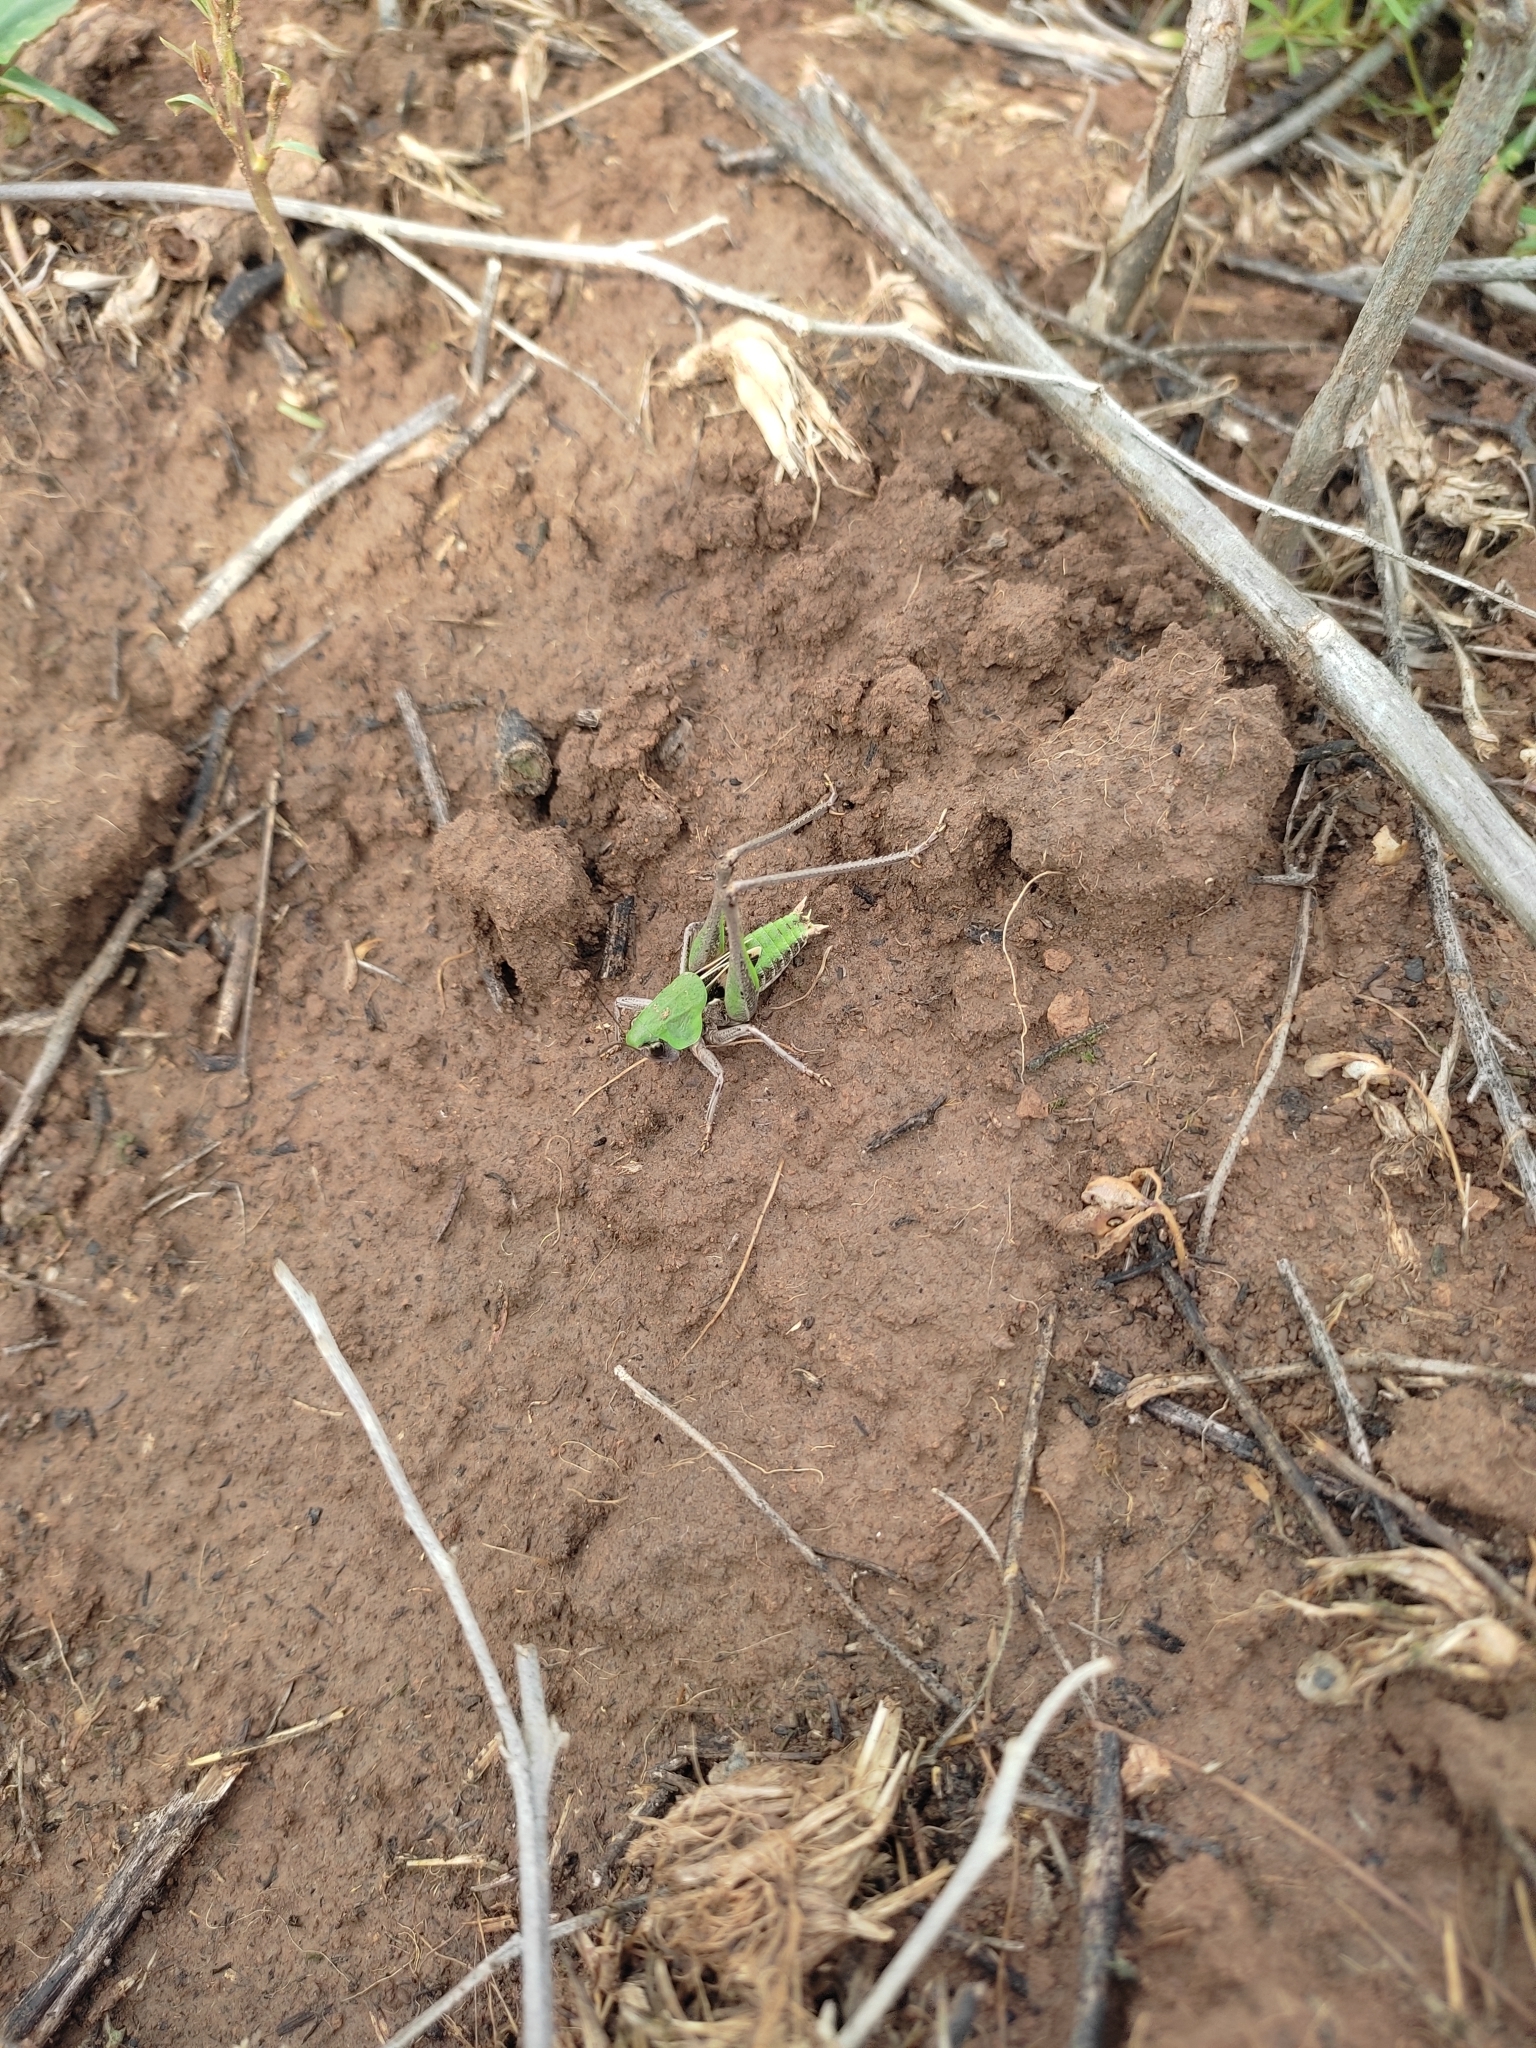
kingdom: Animalia
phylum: Arthropoda
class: Insecta
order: Orthoptera
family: Tettigoniidae
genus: Decticus
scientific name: Decticus verrucivorus
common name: Wart-biter
